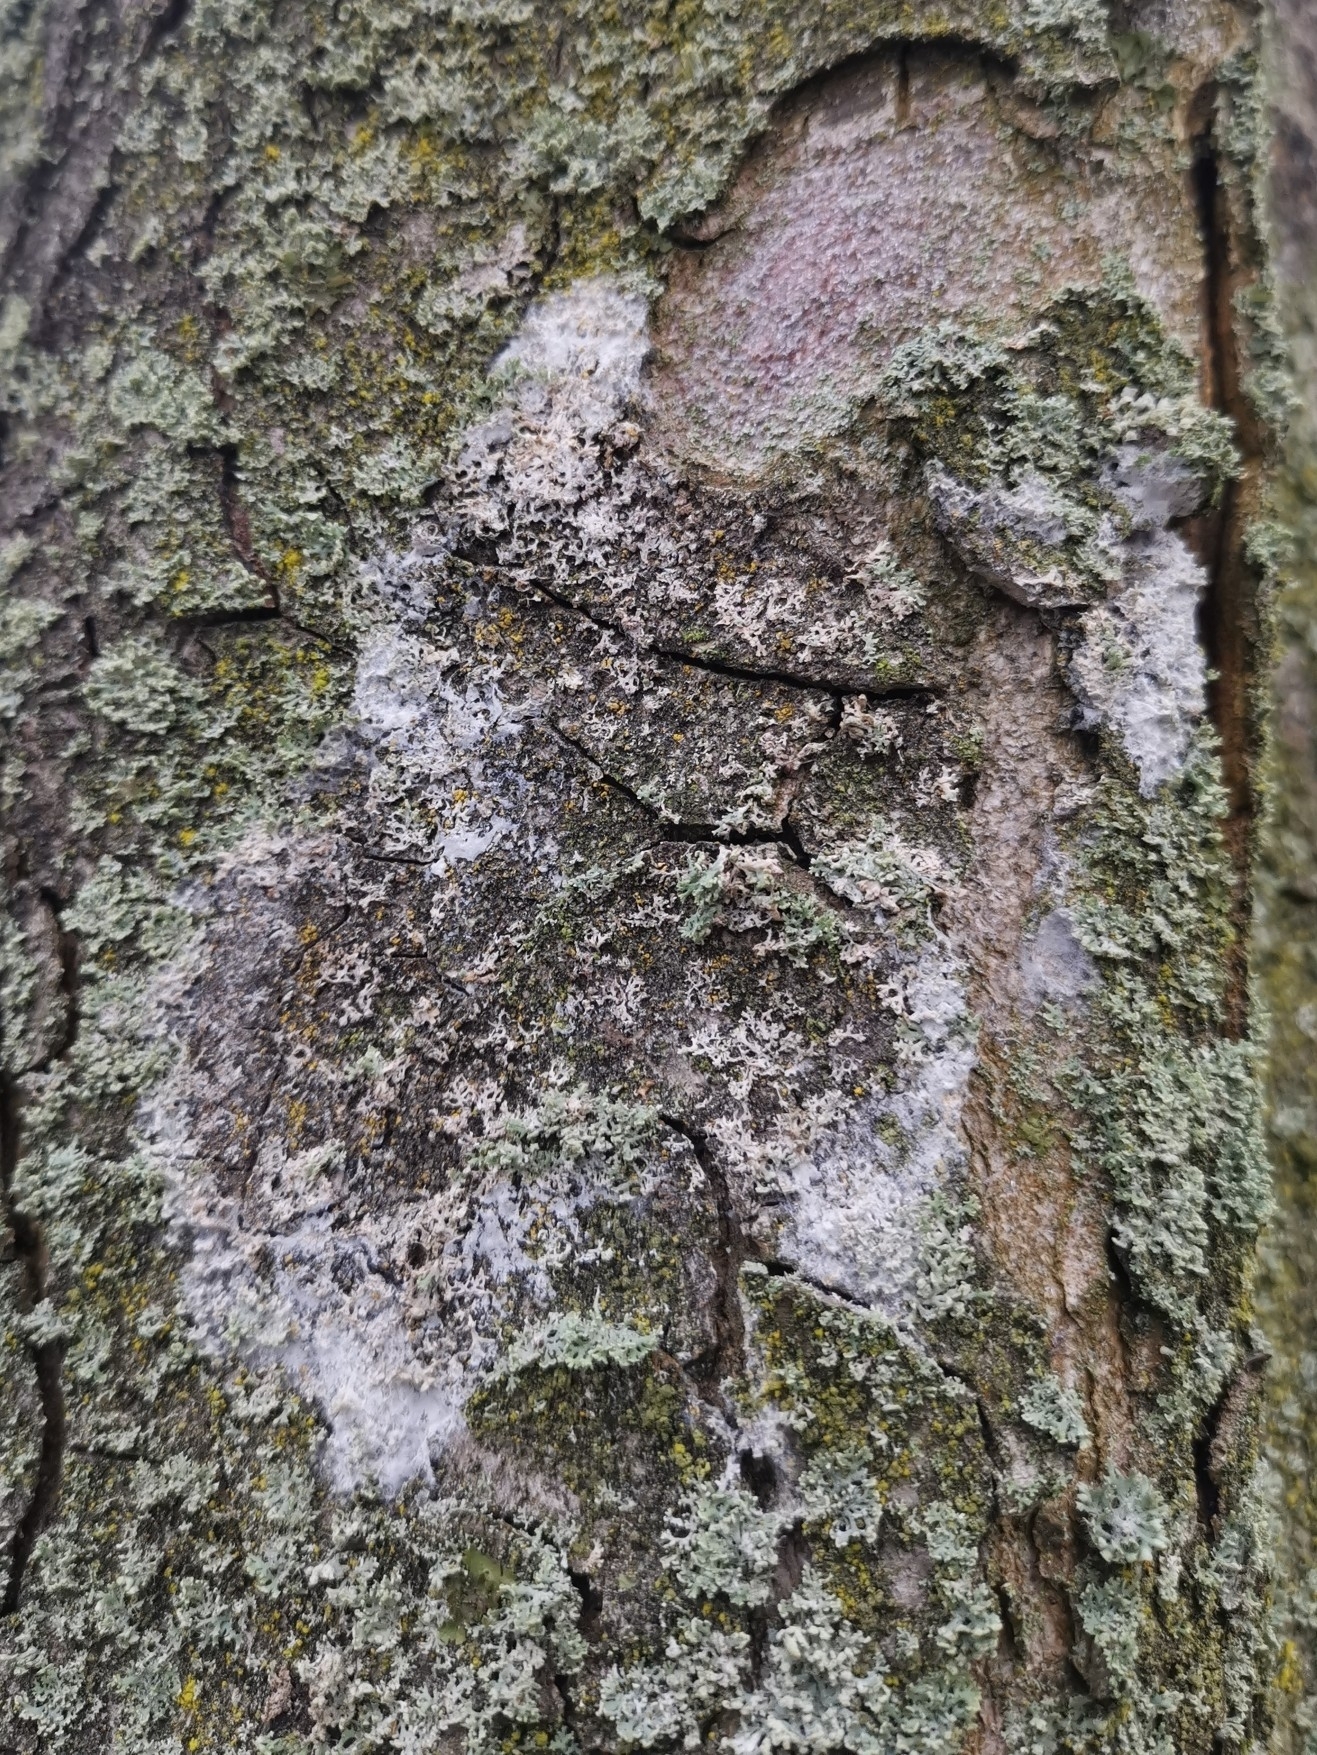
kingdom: Fungi
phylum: Basidiomycota
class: Agaricomycetes
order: Atheliales
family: Atheliaceae
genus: Athelia
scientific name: Athelia arachnoidea
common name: Candelabra duster
